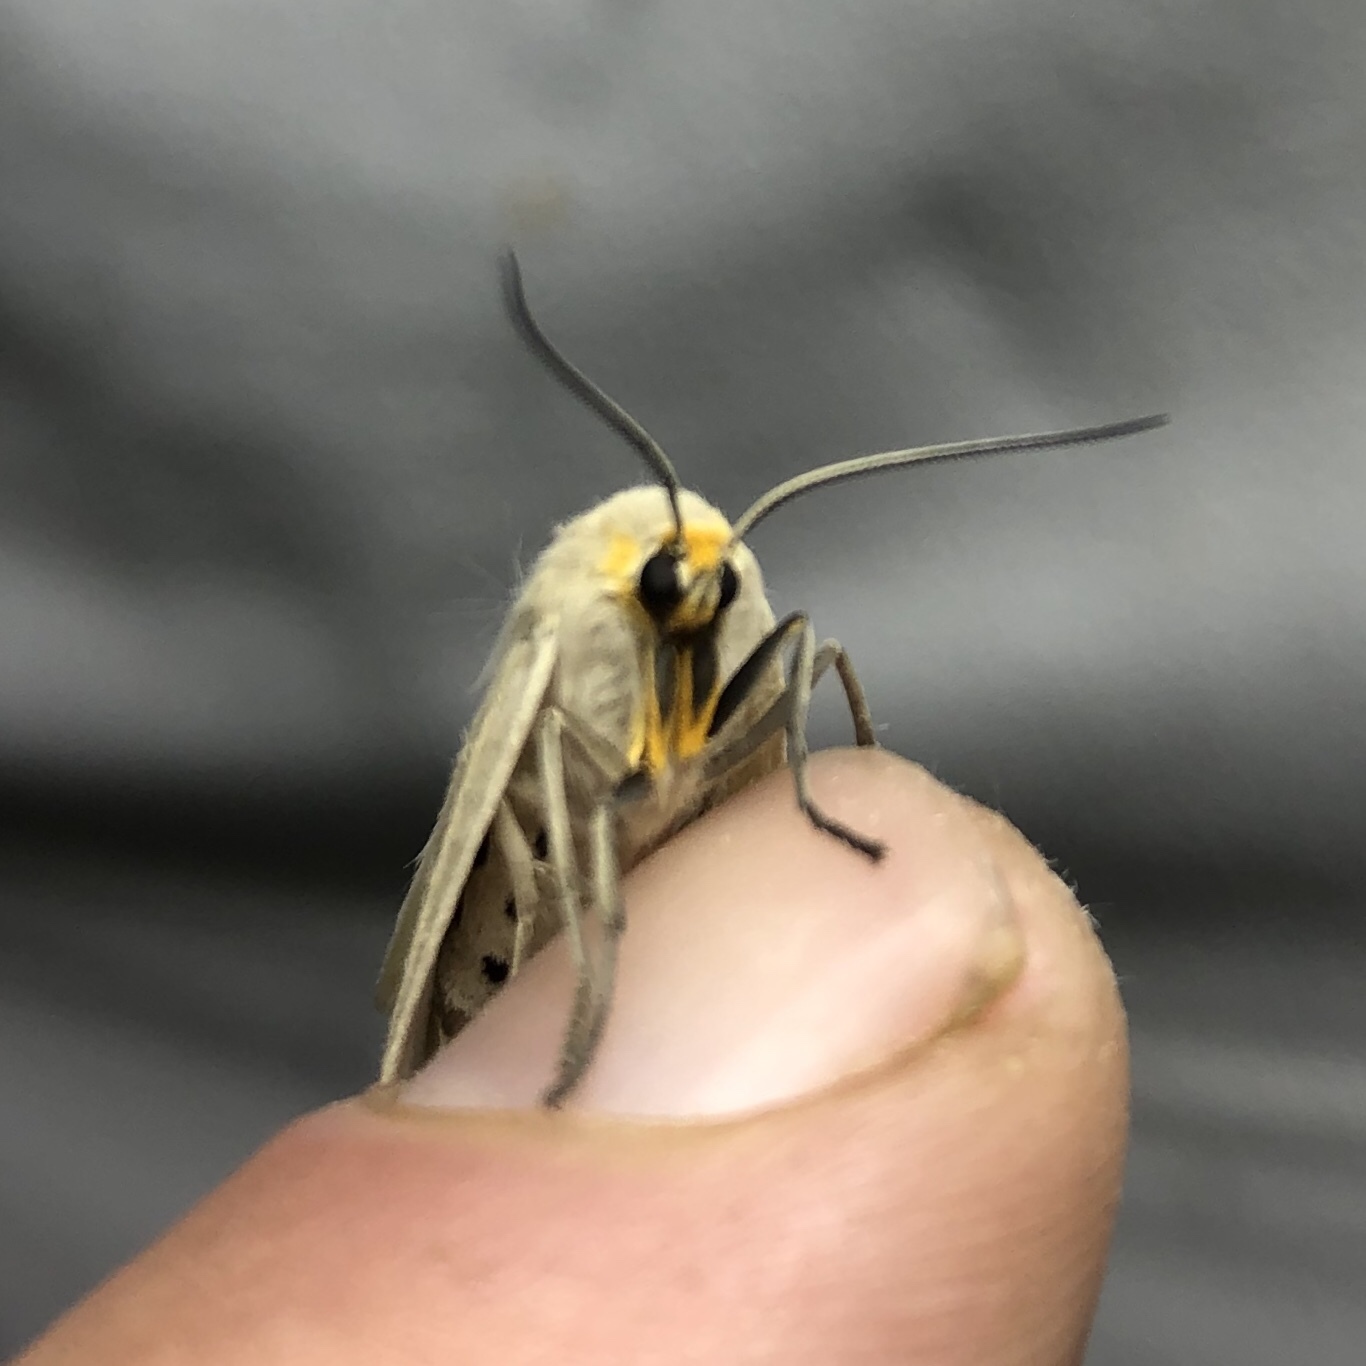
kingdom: Animalia
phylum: Arthropoda
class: Insecta
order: Lepidoptera
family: Erebidae
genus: Euchaetes
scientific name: Euchaetes egle
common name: Milkweed tussock moth
